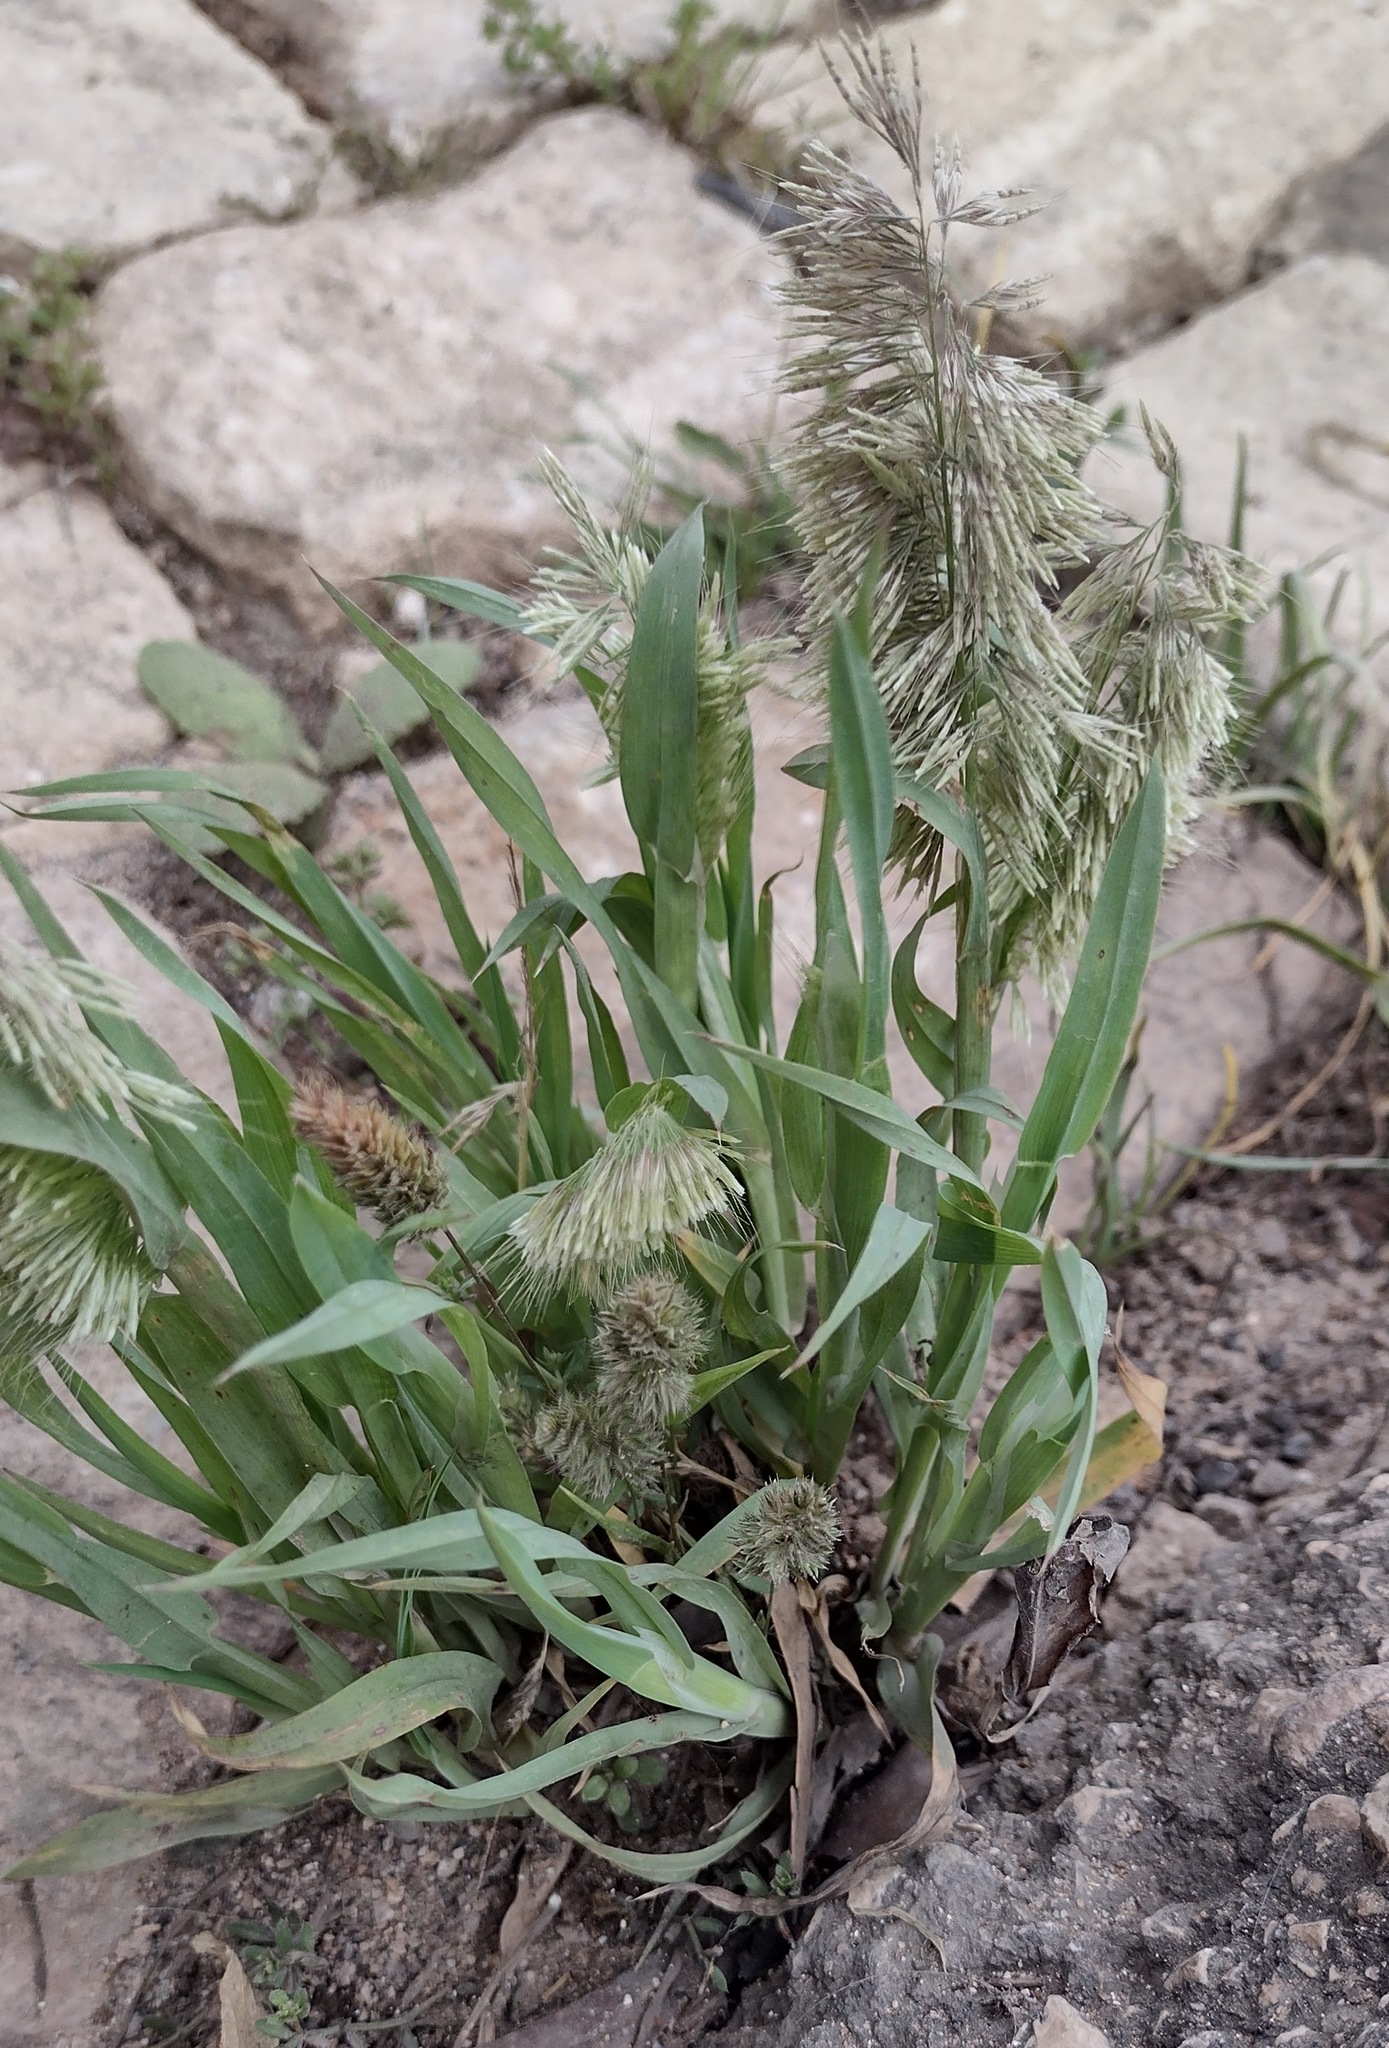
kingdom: Plantae
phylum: Tracheophyta
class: Liliopsida
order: Poales
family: Poaceae
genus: Lamarckia
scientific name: Lamarckia aurea
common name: Golden dog's-tail
